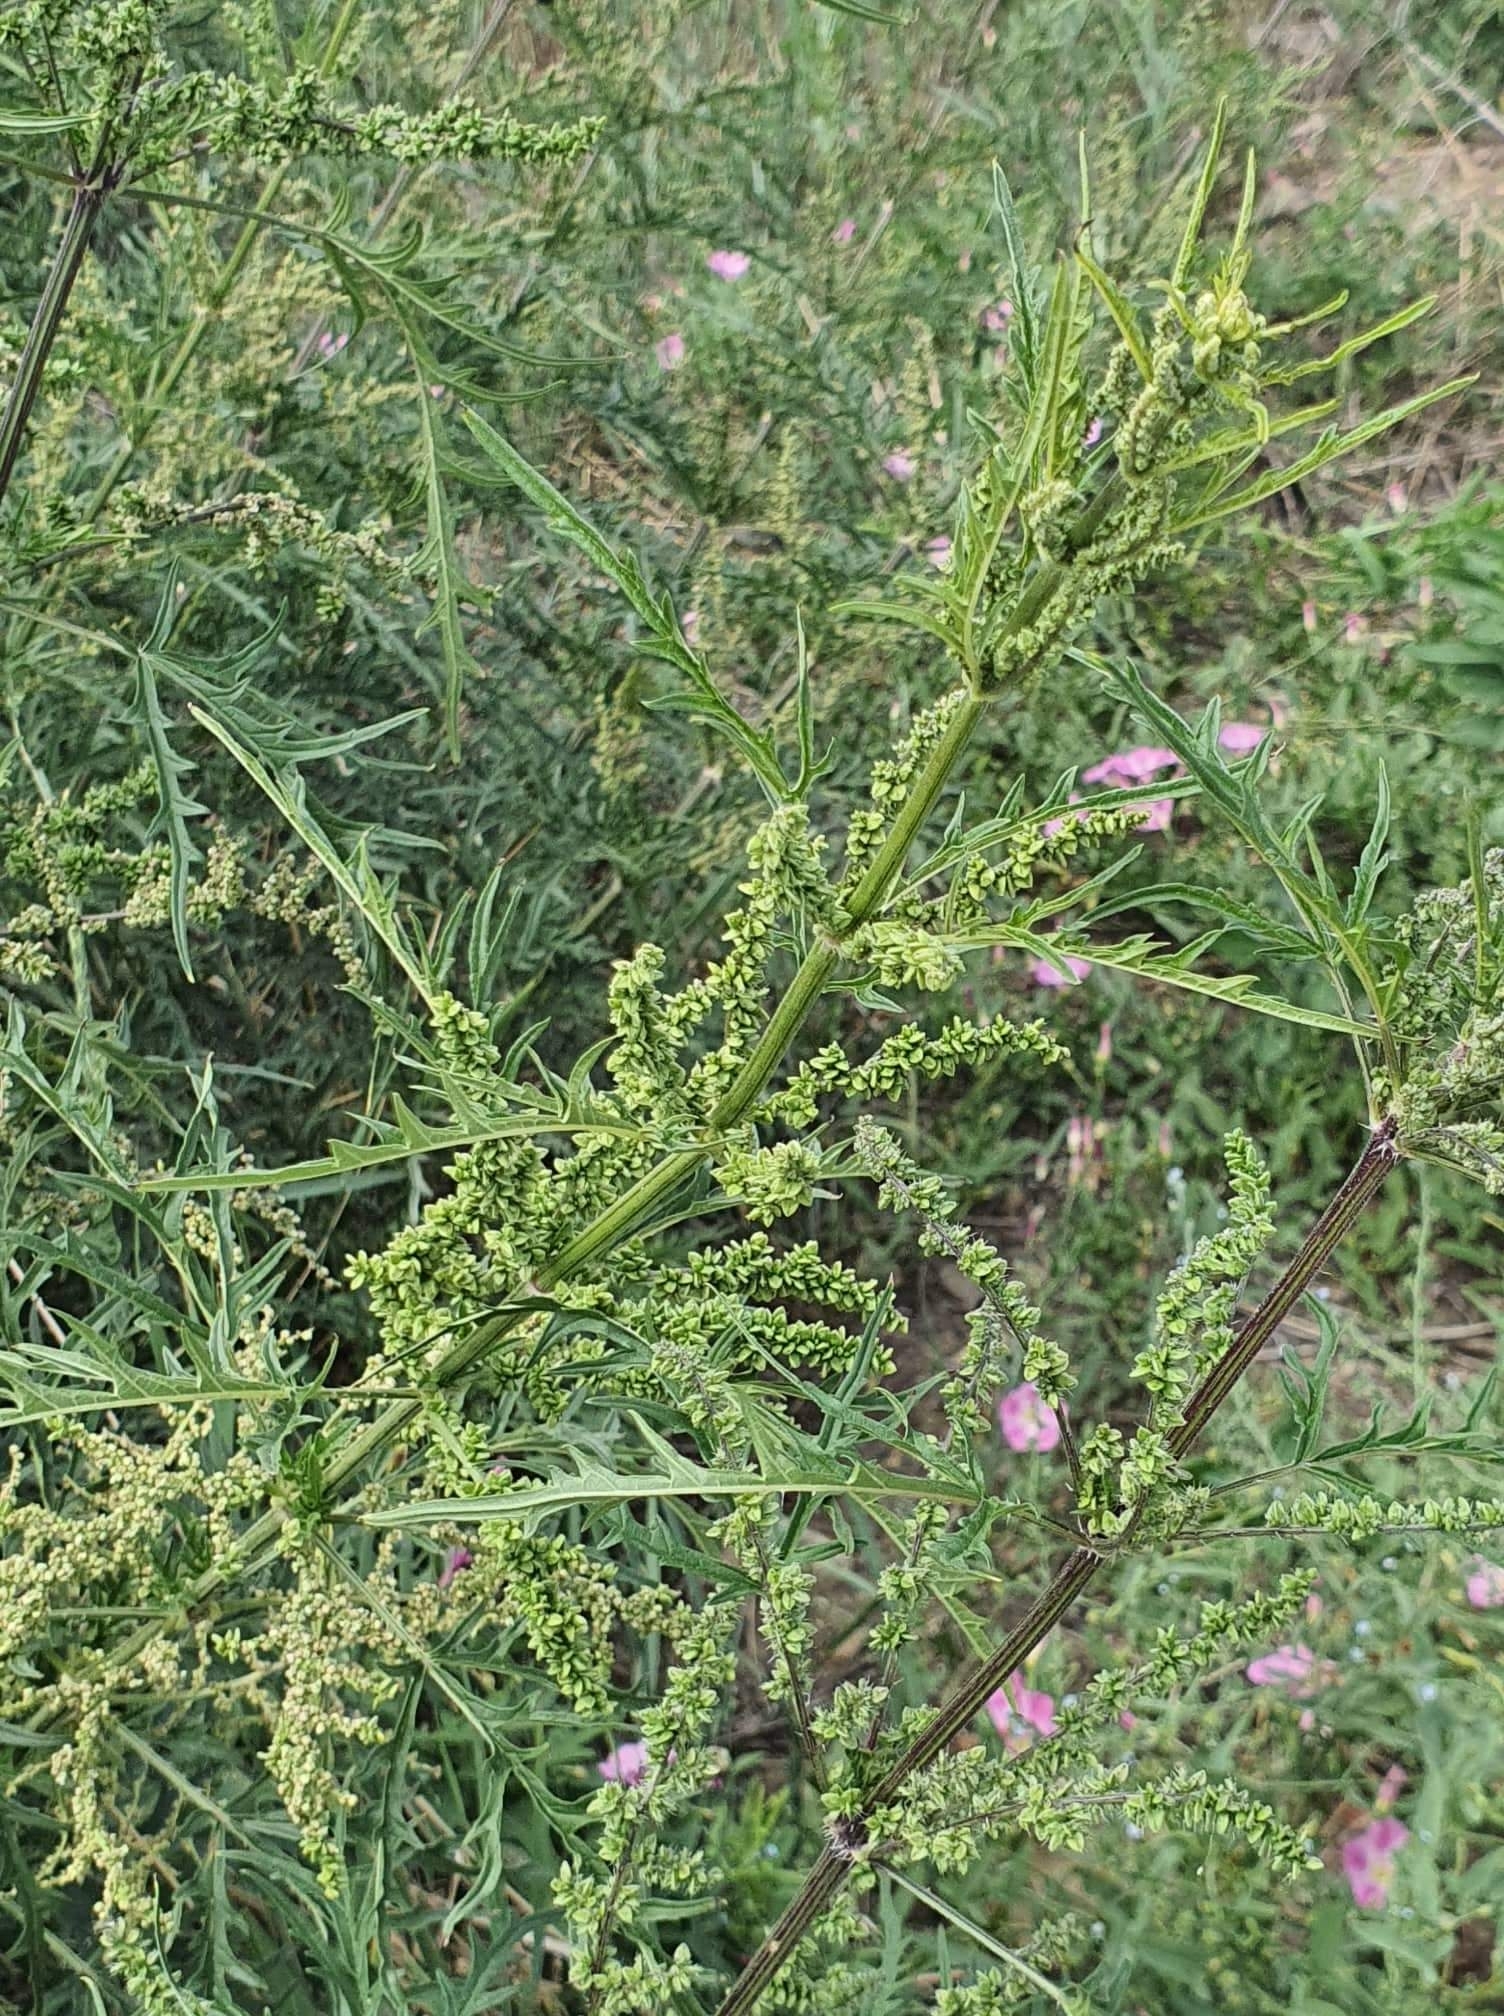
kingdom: Plantae
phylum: Tracheophyta
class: Magnoliopsida
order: Rosales
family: Urticaceae
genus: Urtica
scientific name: Urtica cannabina
